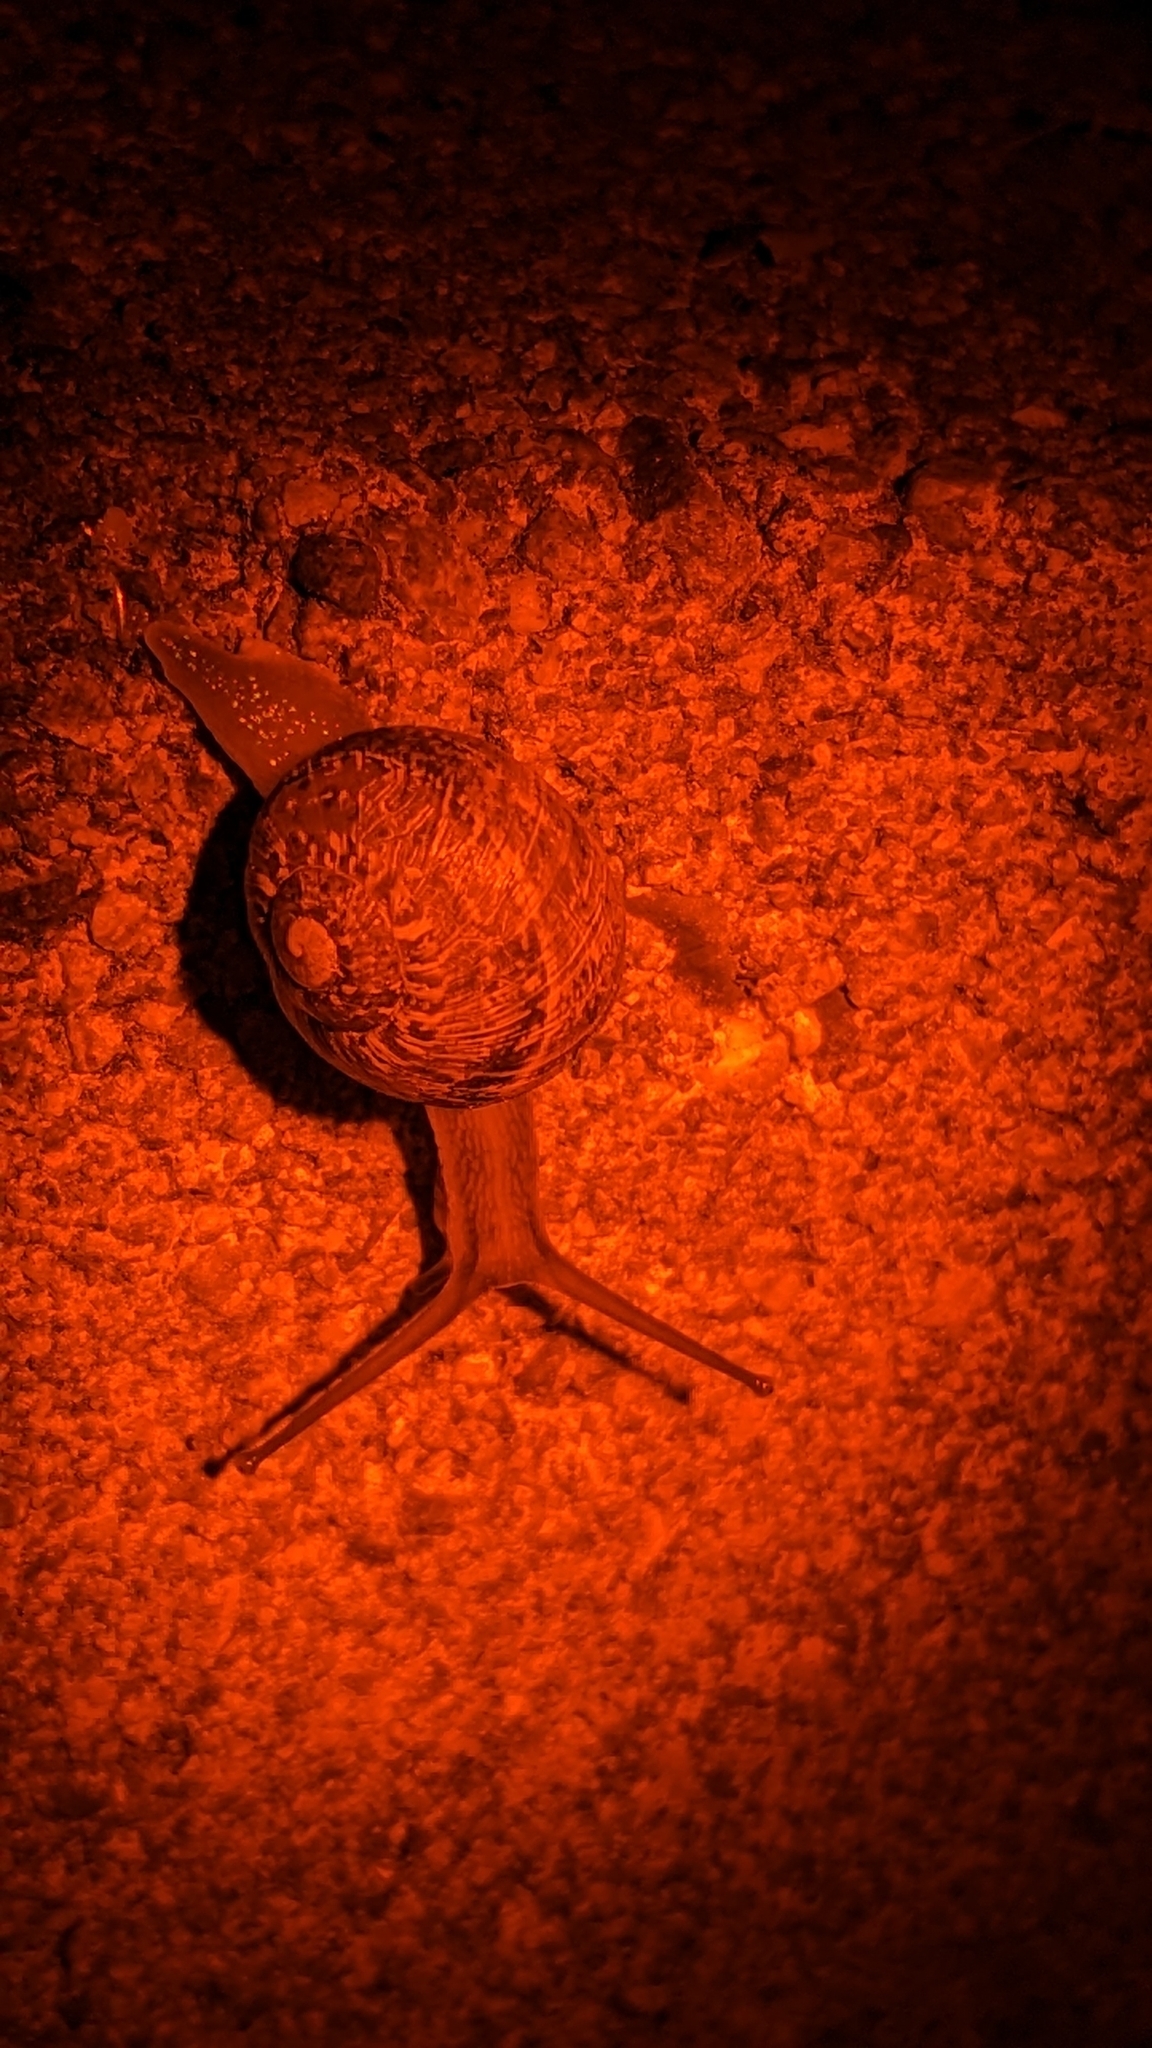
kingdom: Animalia
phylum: Mollusca
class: Gastropoda
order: Stylommatophora
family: Helicidae
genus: Cornu
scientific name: Cornu aspersum
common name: Brown garden snail
